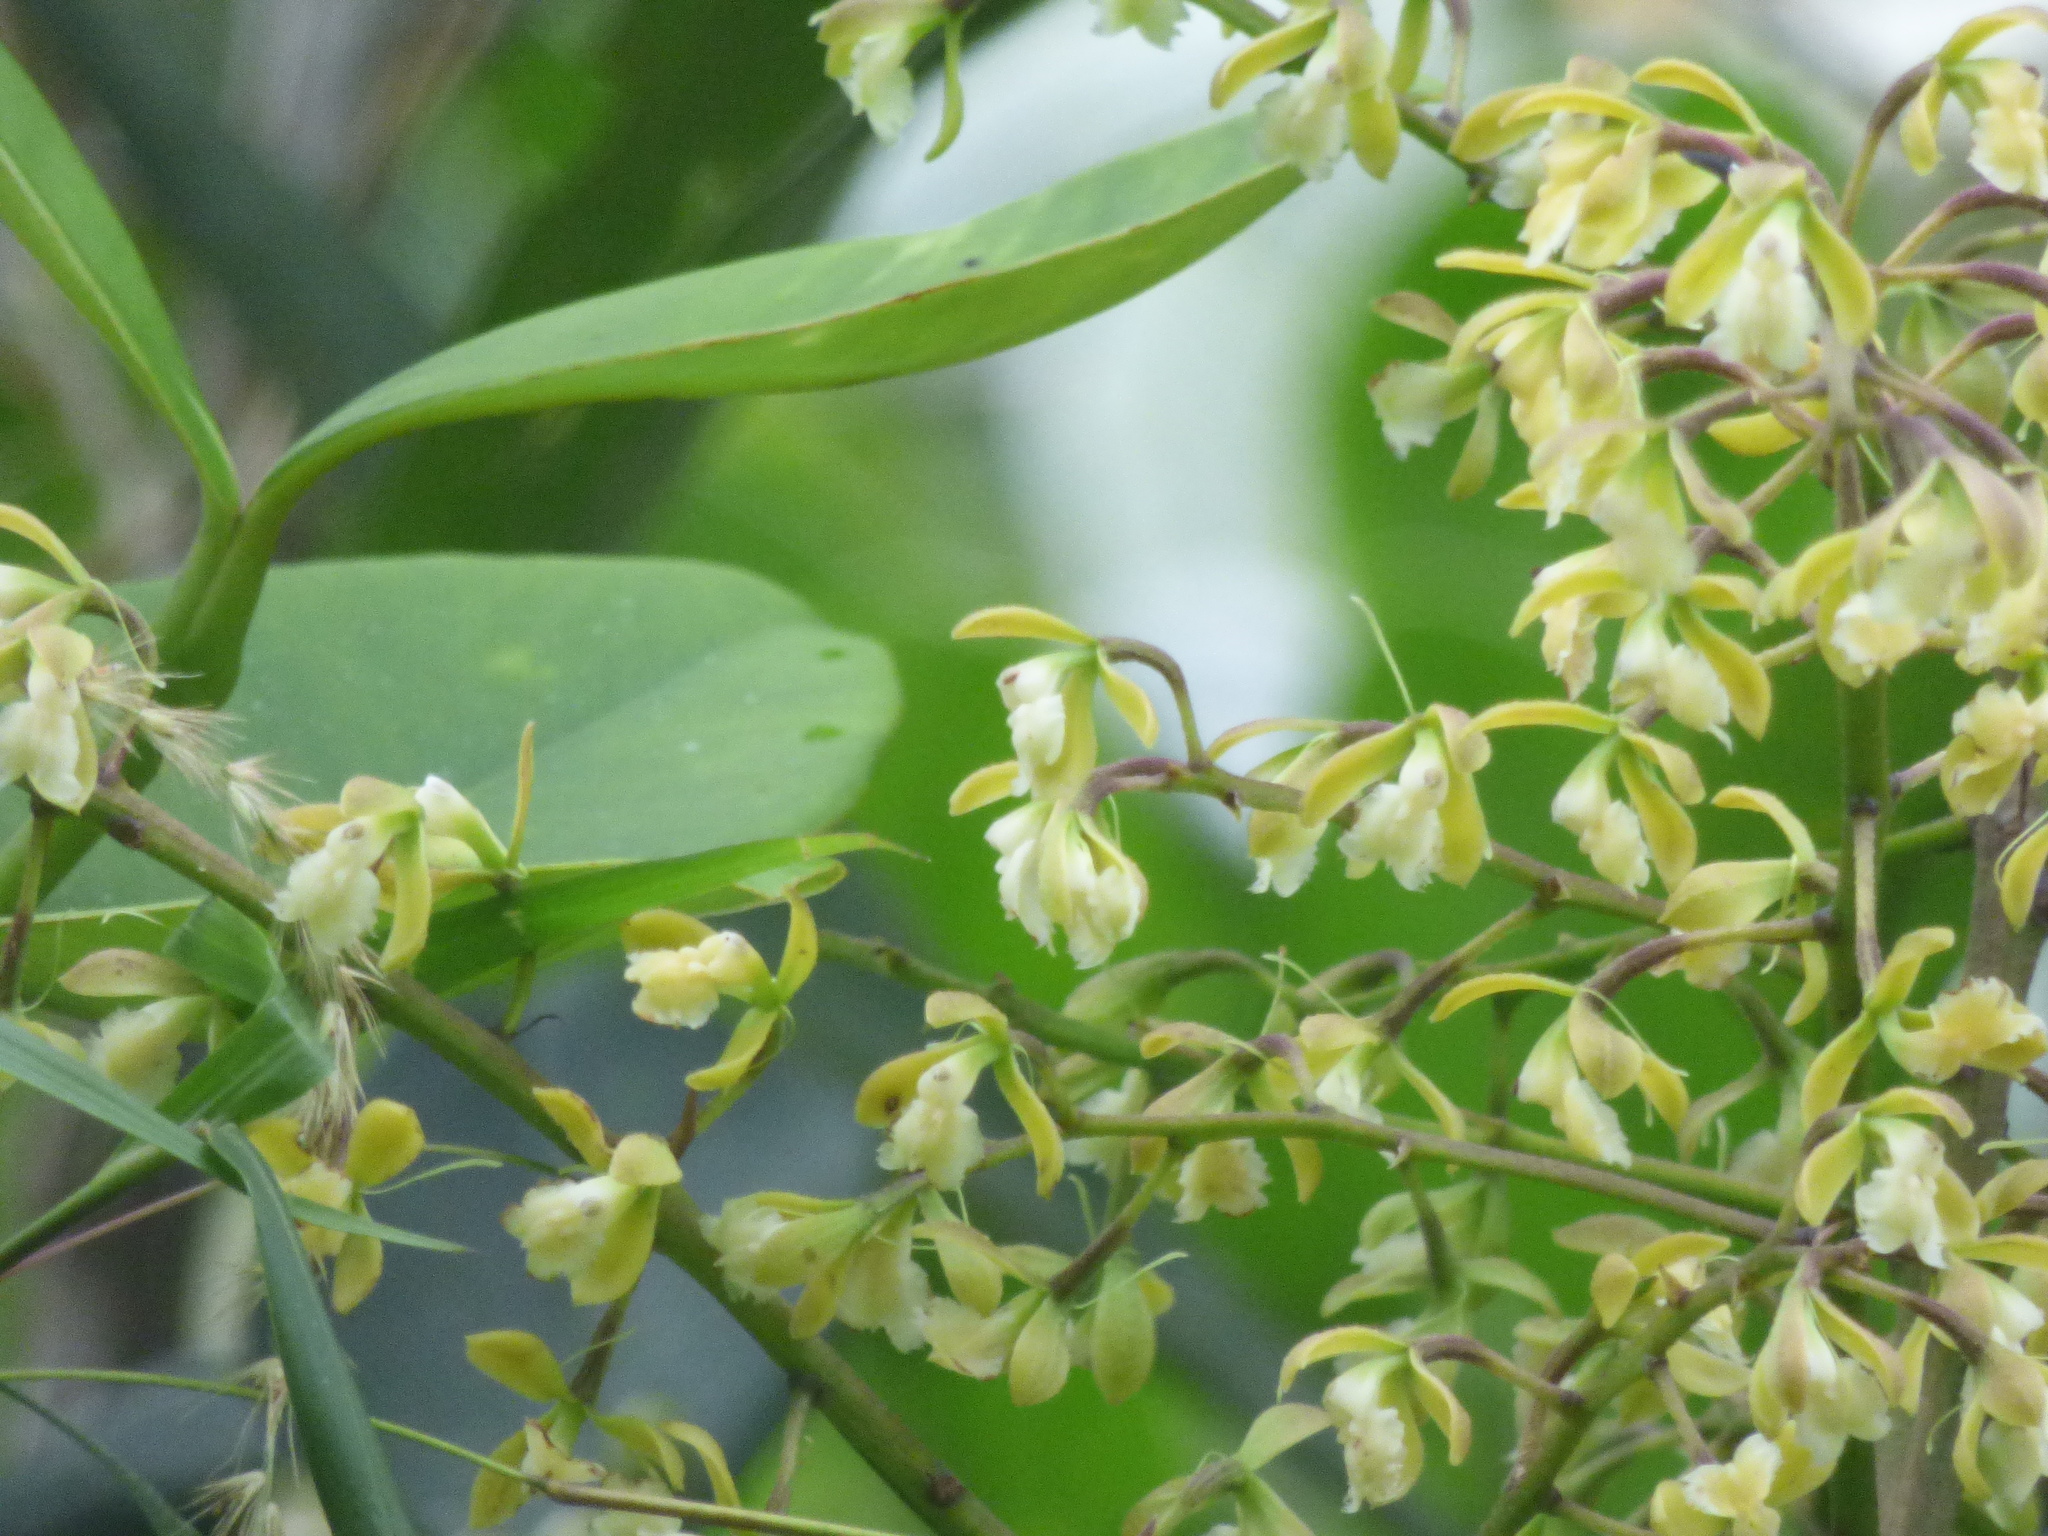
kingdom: Plantae
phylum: Tracheophyta
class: Liliopsida
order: Asparagales
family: Orchidaceae
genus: Epidendrum
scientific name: Epidendrum calothyrsus
